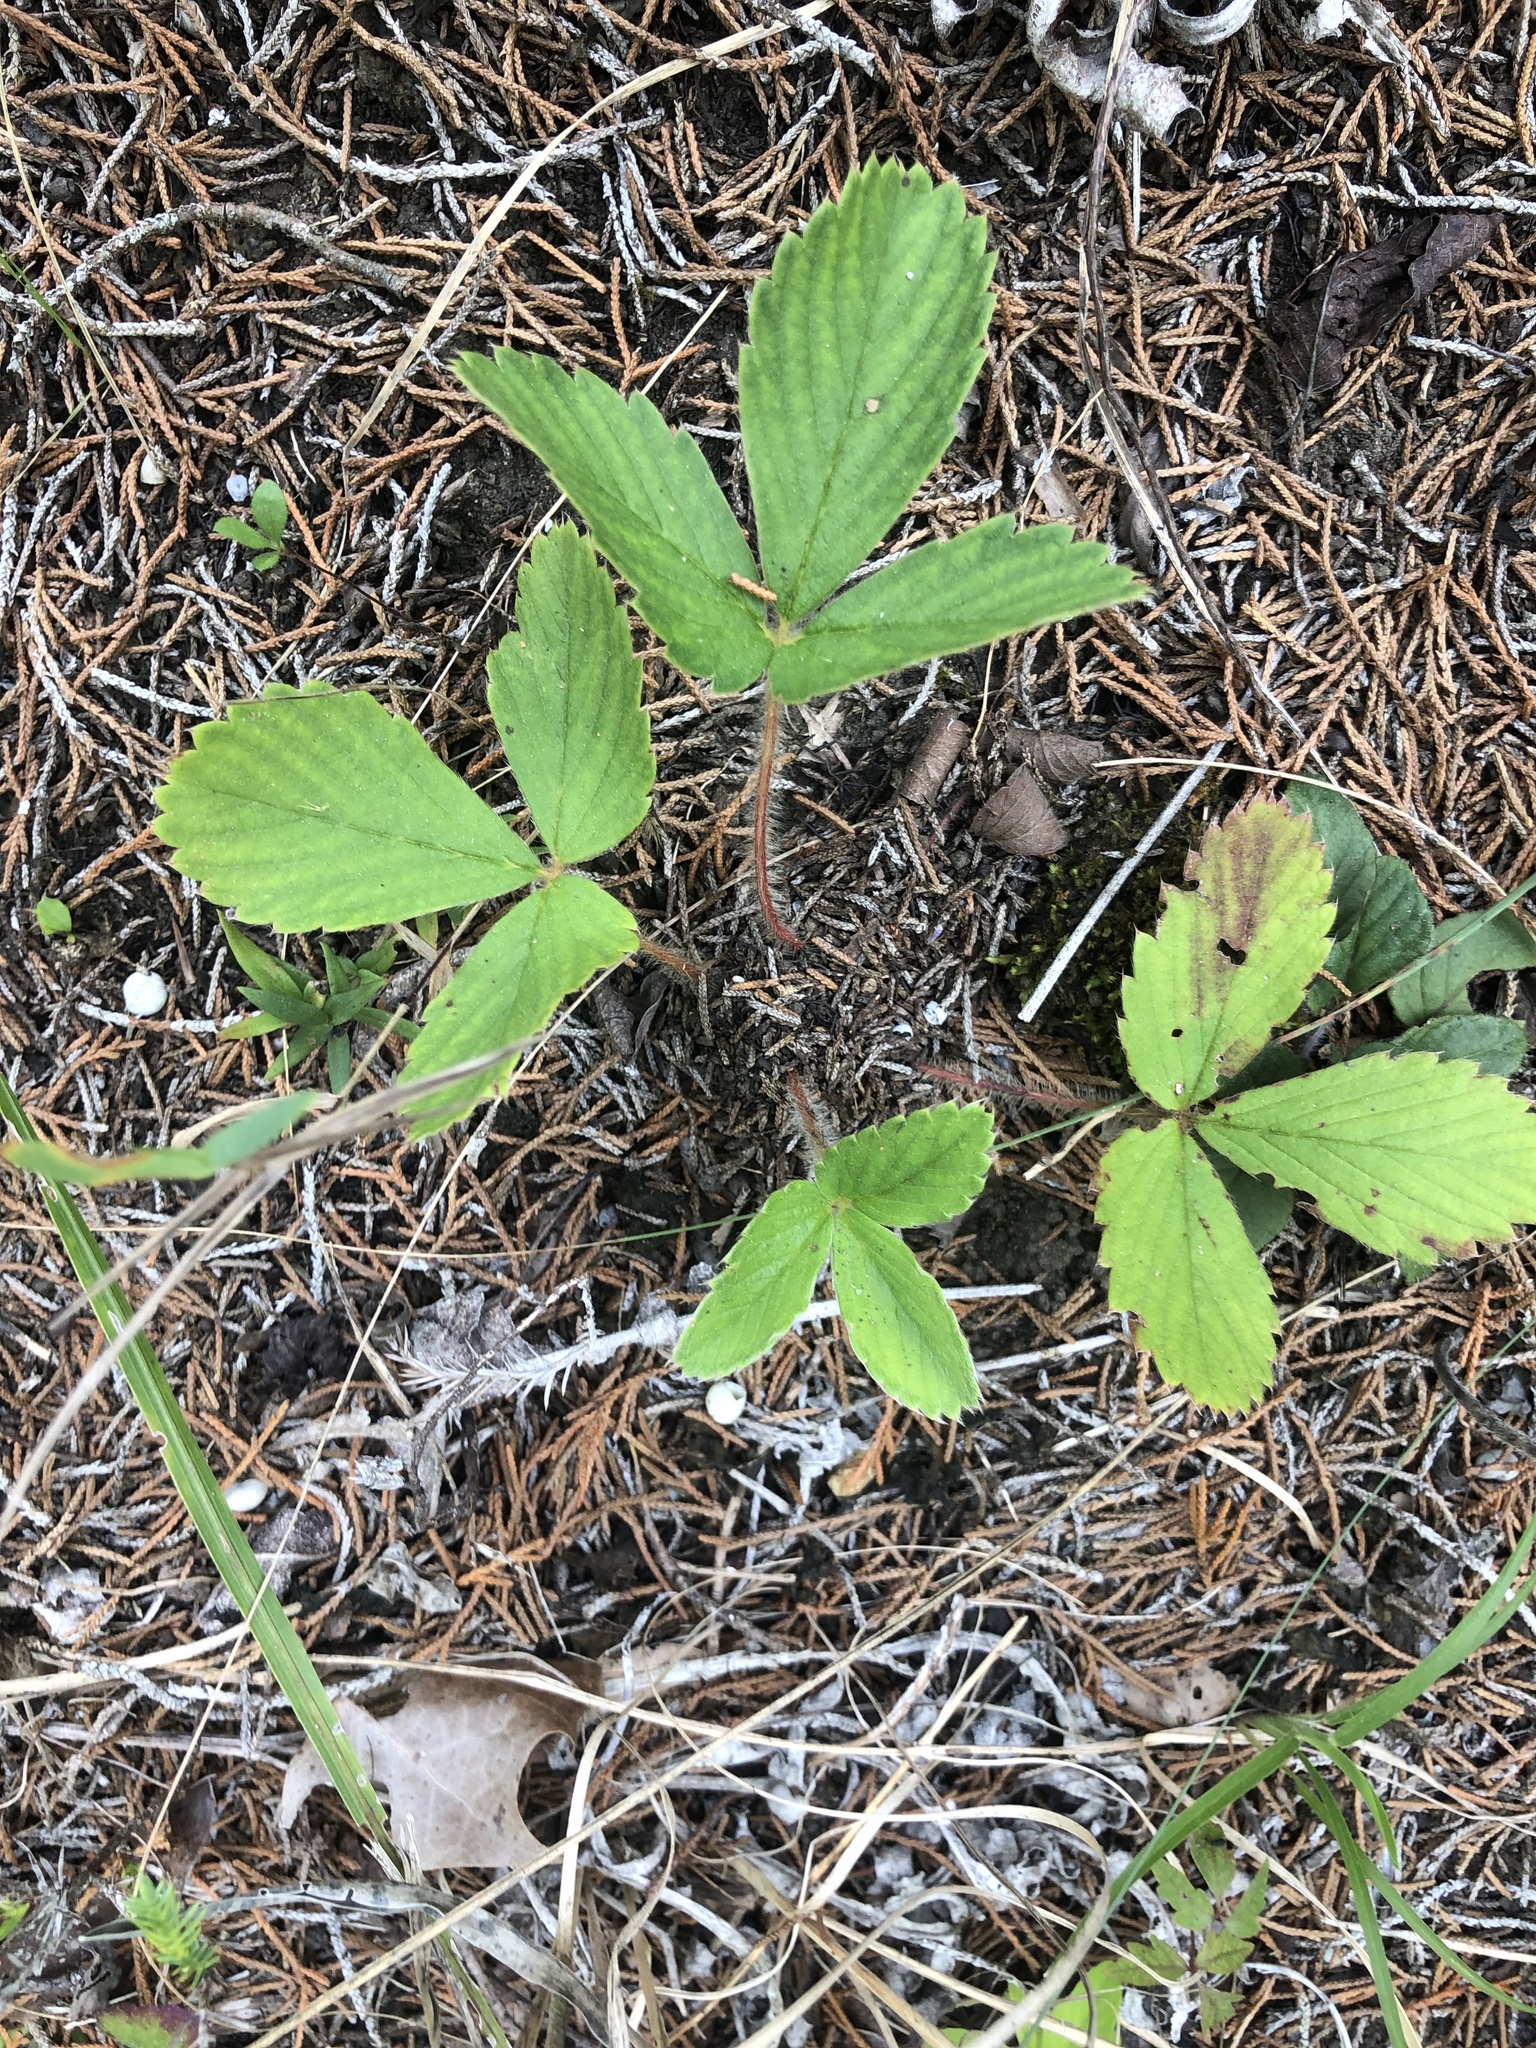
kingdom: Plantae
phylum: Tracheophyta
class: Magnoliopsida
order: Rosales
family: Rosaceae
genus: Fragaria
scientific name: Fragaria virginiana
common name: Thickleaved wild strawberry
